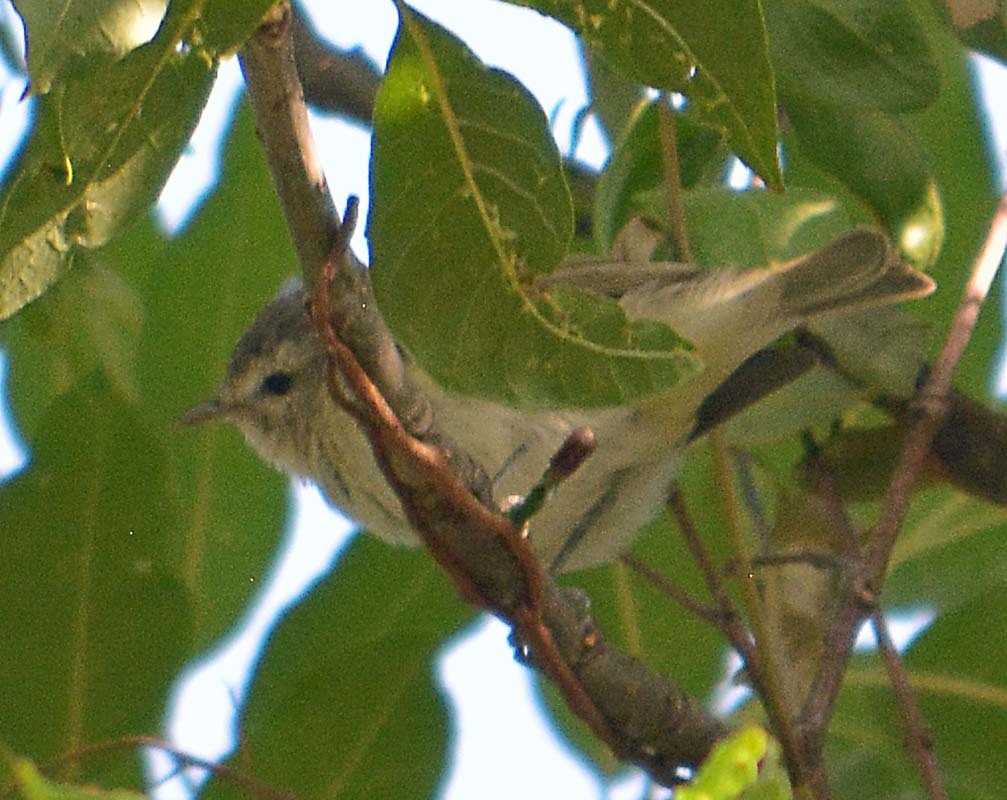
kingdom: Animalia
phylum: Chordata
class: Aves
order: Passeriformes
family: Vireonidae
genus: Vireo
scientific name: Vireo gilvus
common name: Warbling vireo
